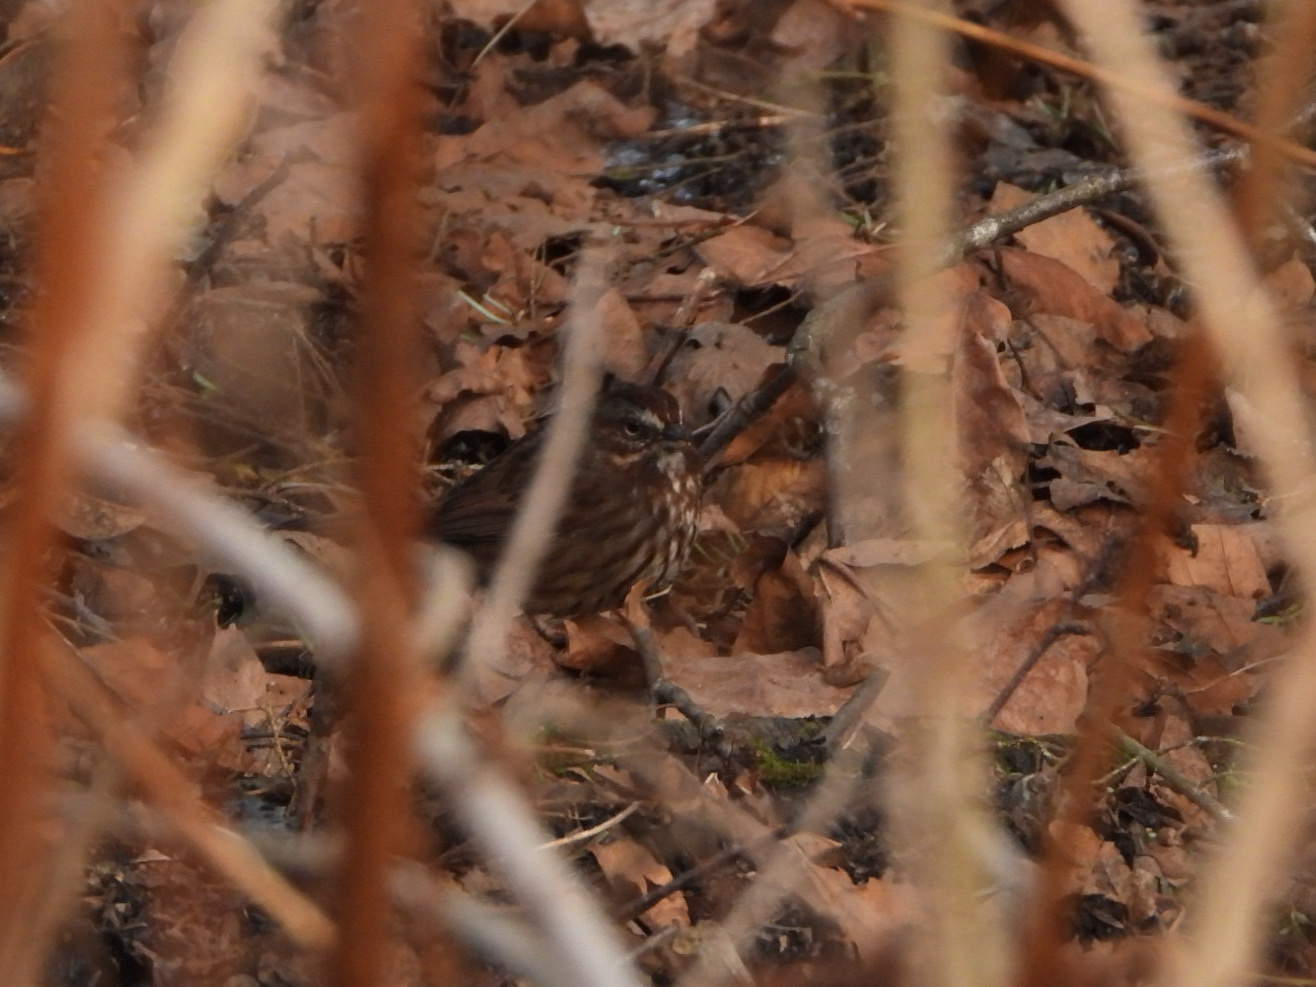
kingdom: Animalia
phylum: Chordata
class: Aves
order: Passeriformes
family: Passerellidae
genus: Melospiza
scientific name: Melospiza melodia
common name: Song sparrow
